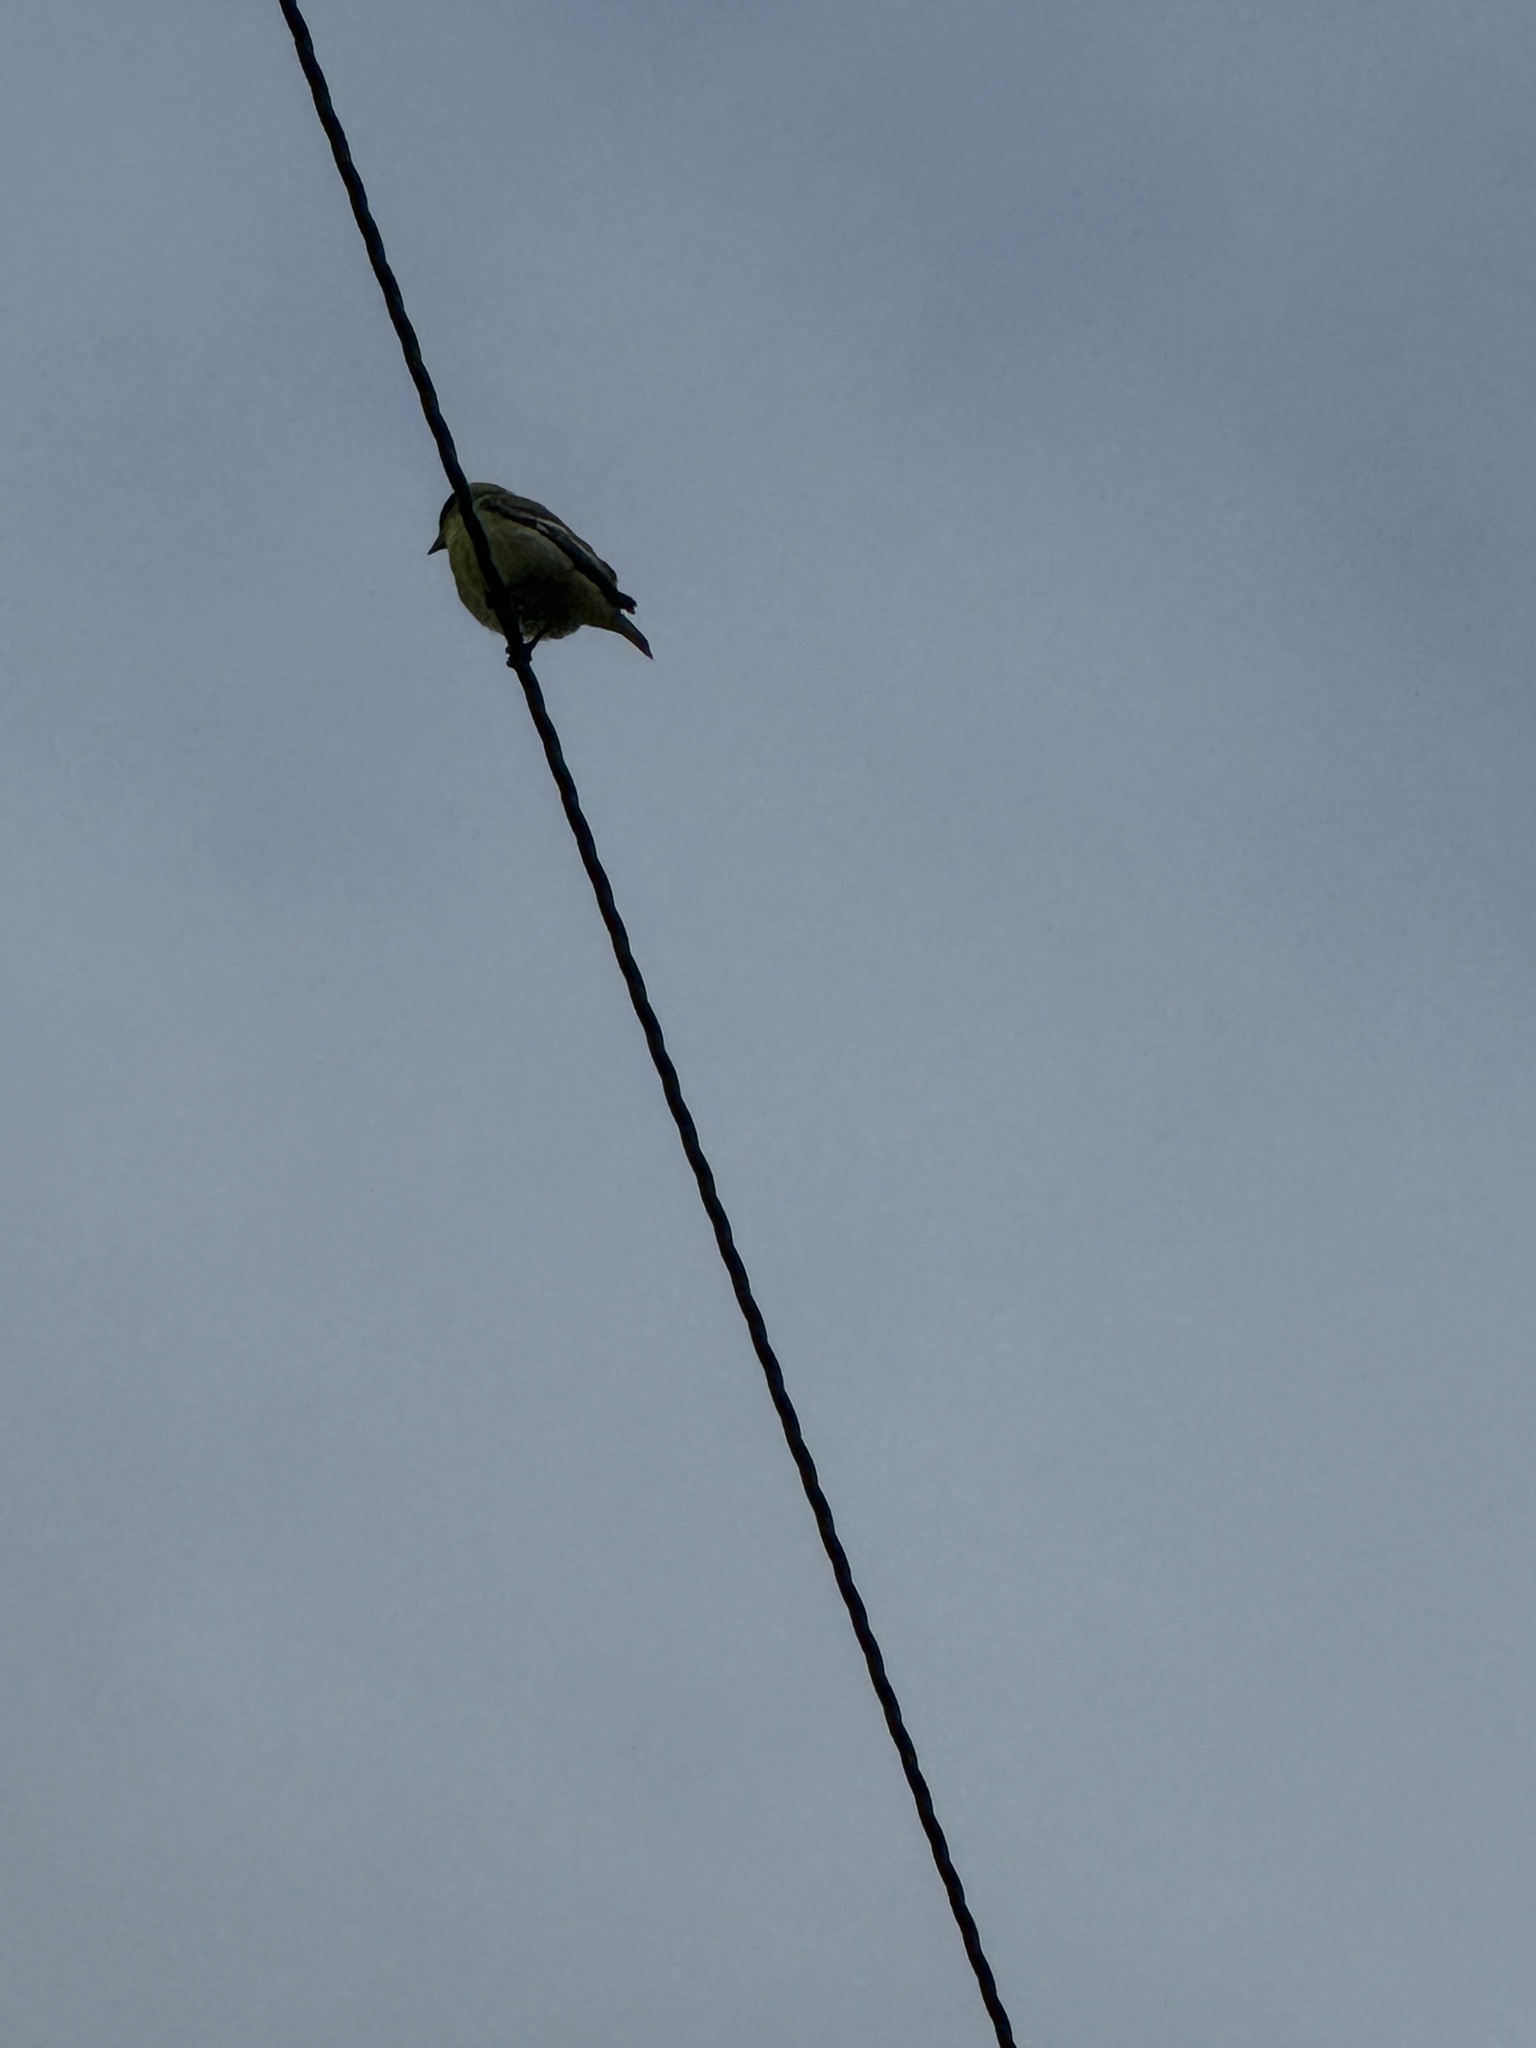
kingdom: Animalia
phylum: Chordata
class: Aves
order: Passeriformes
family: Fringillidae
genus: Spinus
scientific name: Spinus psaltria
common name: Lesser goldfinch
